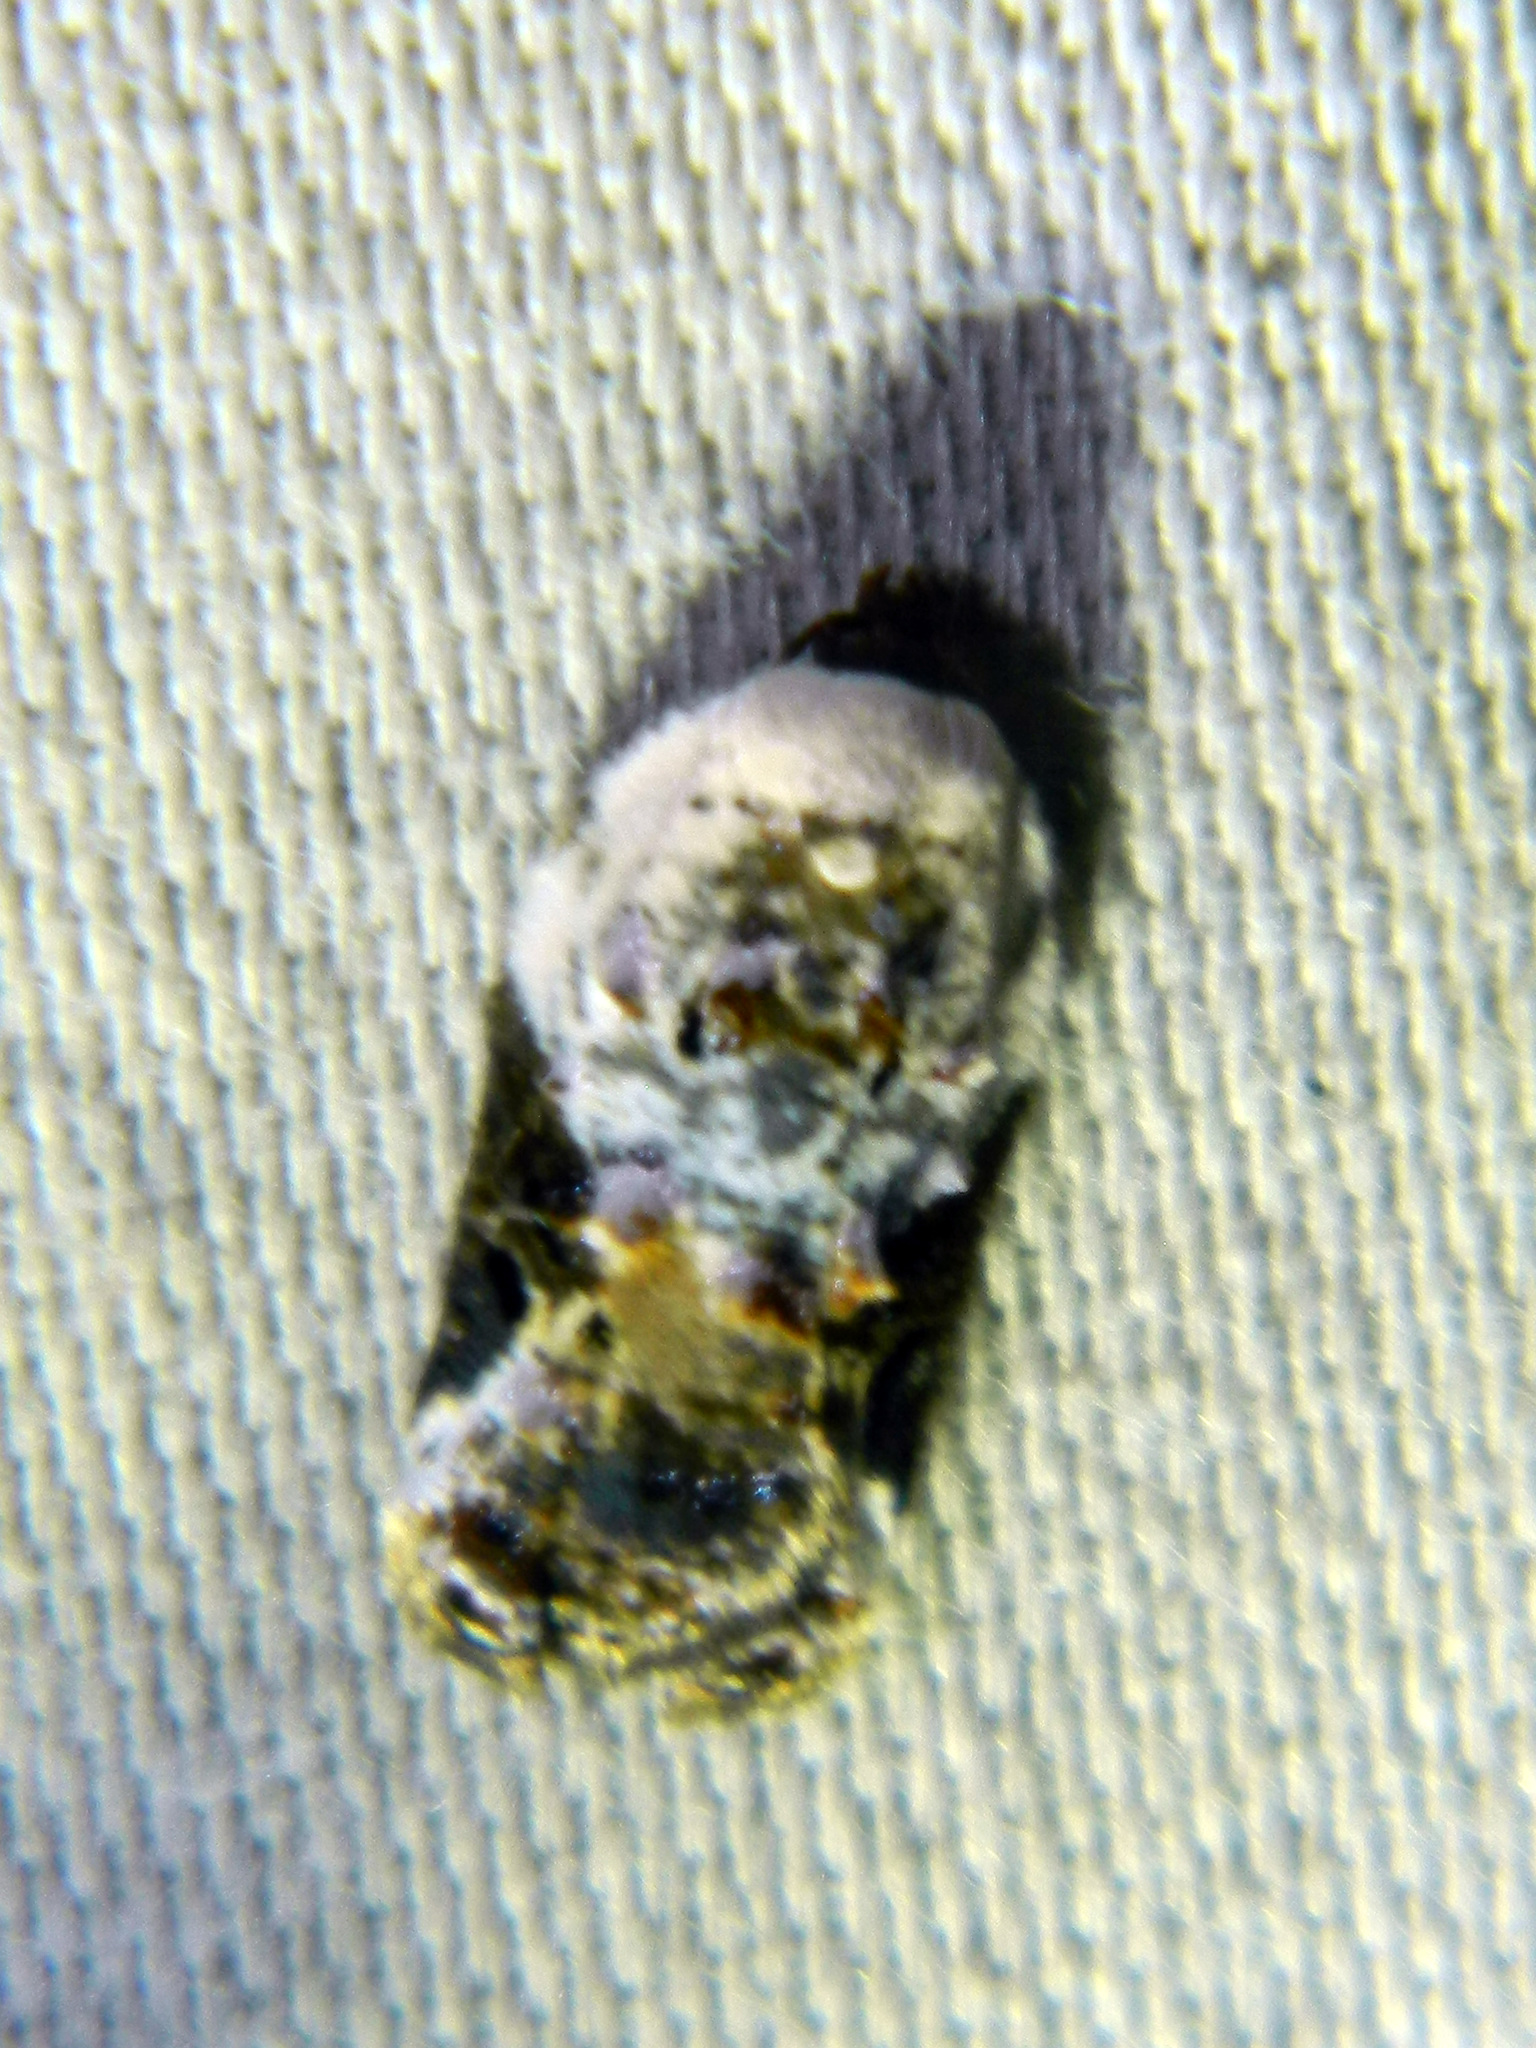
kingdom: Animalia
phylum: Arthropoda
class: Insecta
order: Lepidoptera
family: Tortricidae
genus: Acleris
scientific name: Acleris nivisellana
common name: Snowy-shouldered acleris moth
